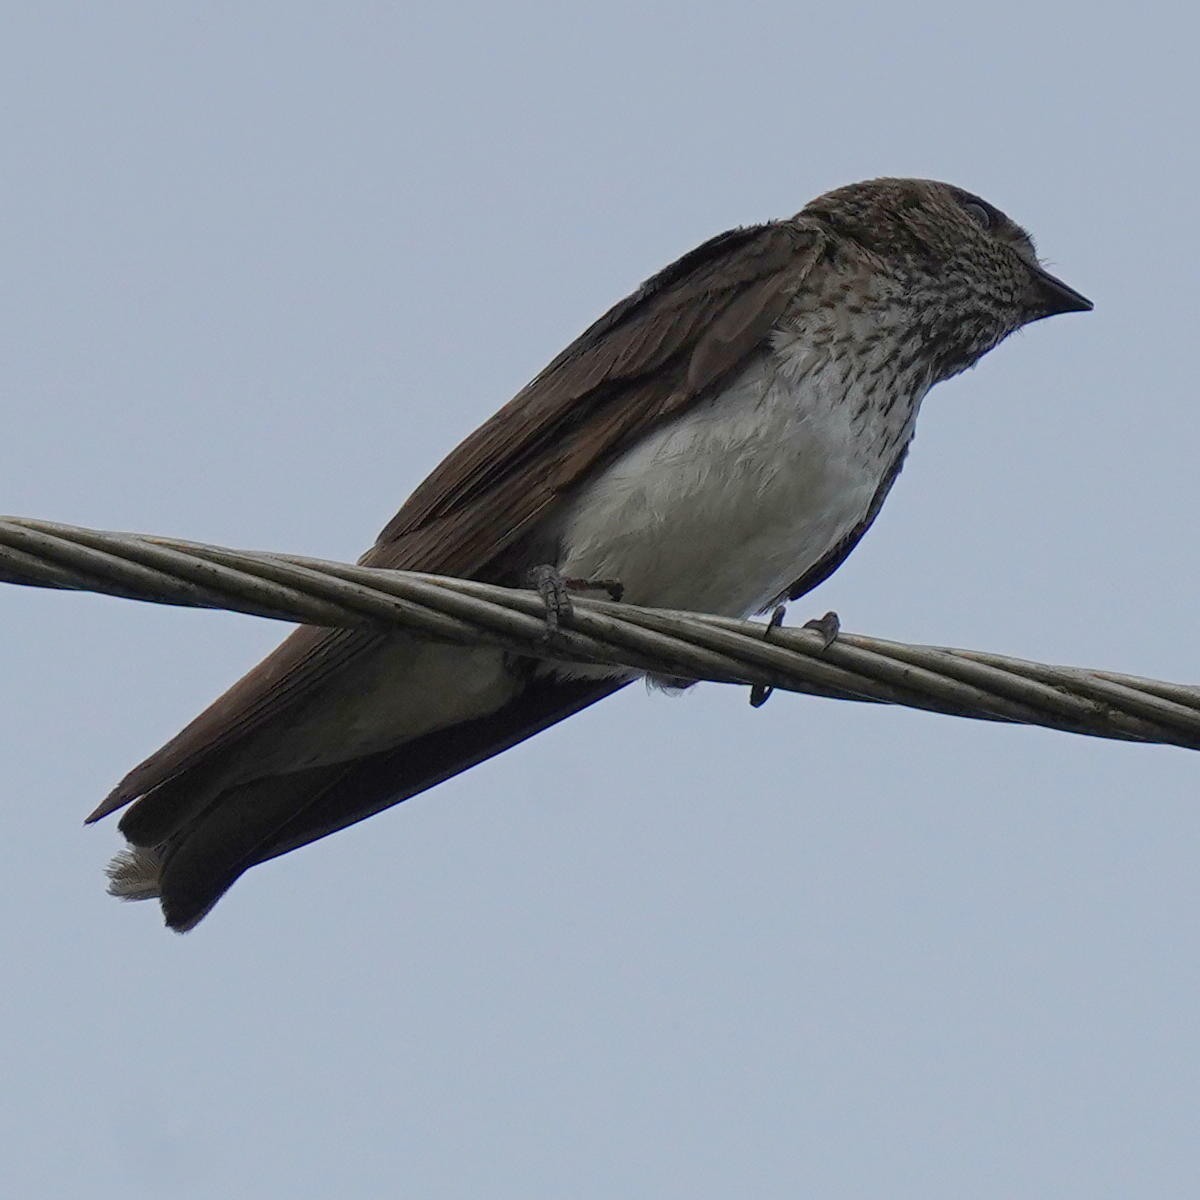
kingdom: Animalia
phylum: Chordata
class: Aves
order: Passeriformes
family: Hirundinidae
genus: Petrochelidon
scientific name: Petrochelidon fluvicola
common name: Streak-throated swallow
